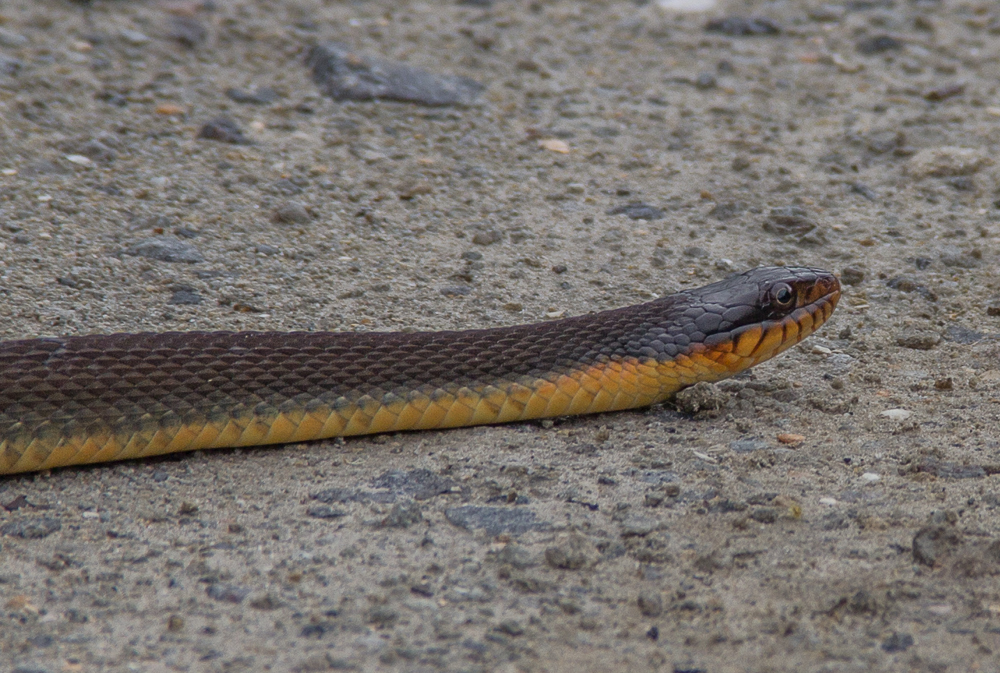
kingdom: Animalia
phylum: Chordata
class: Squamata
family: Colubridae
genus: Nerodia
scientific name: Nerodia erythrogaster
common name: Plainbelly water snake
